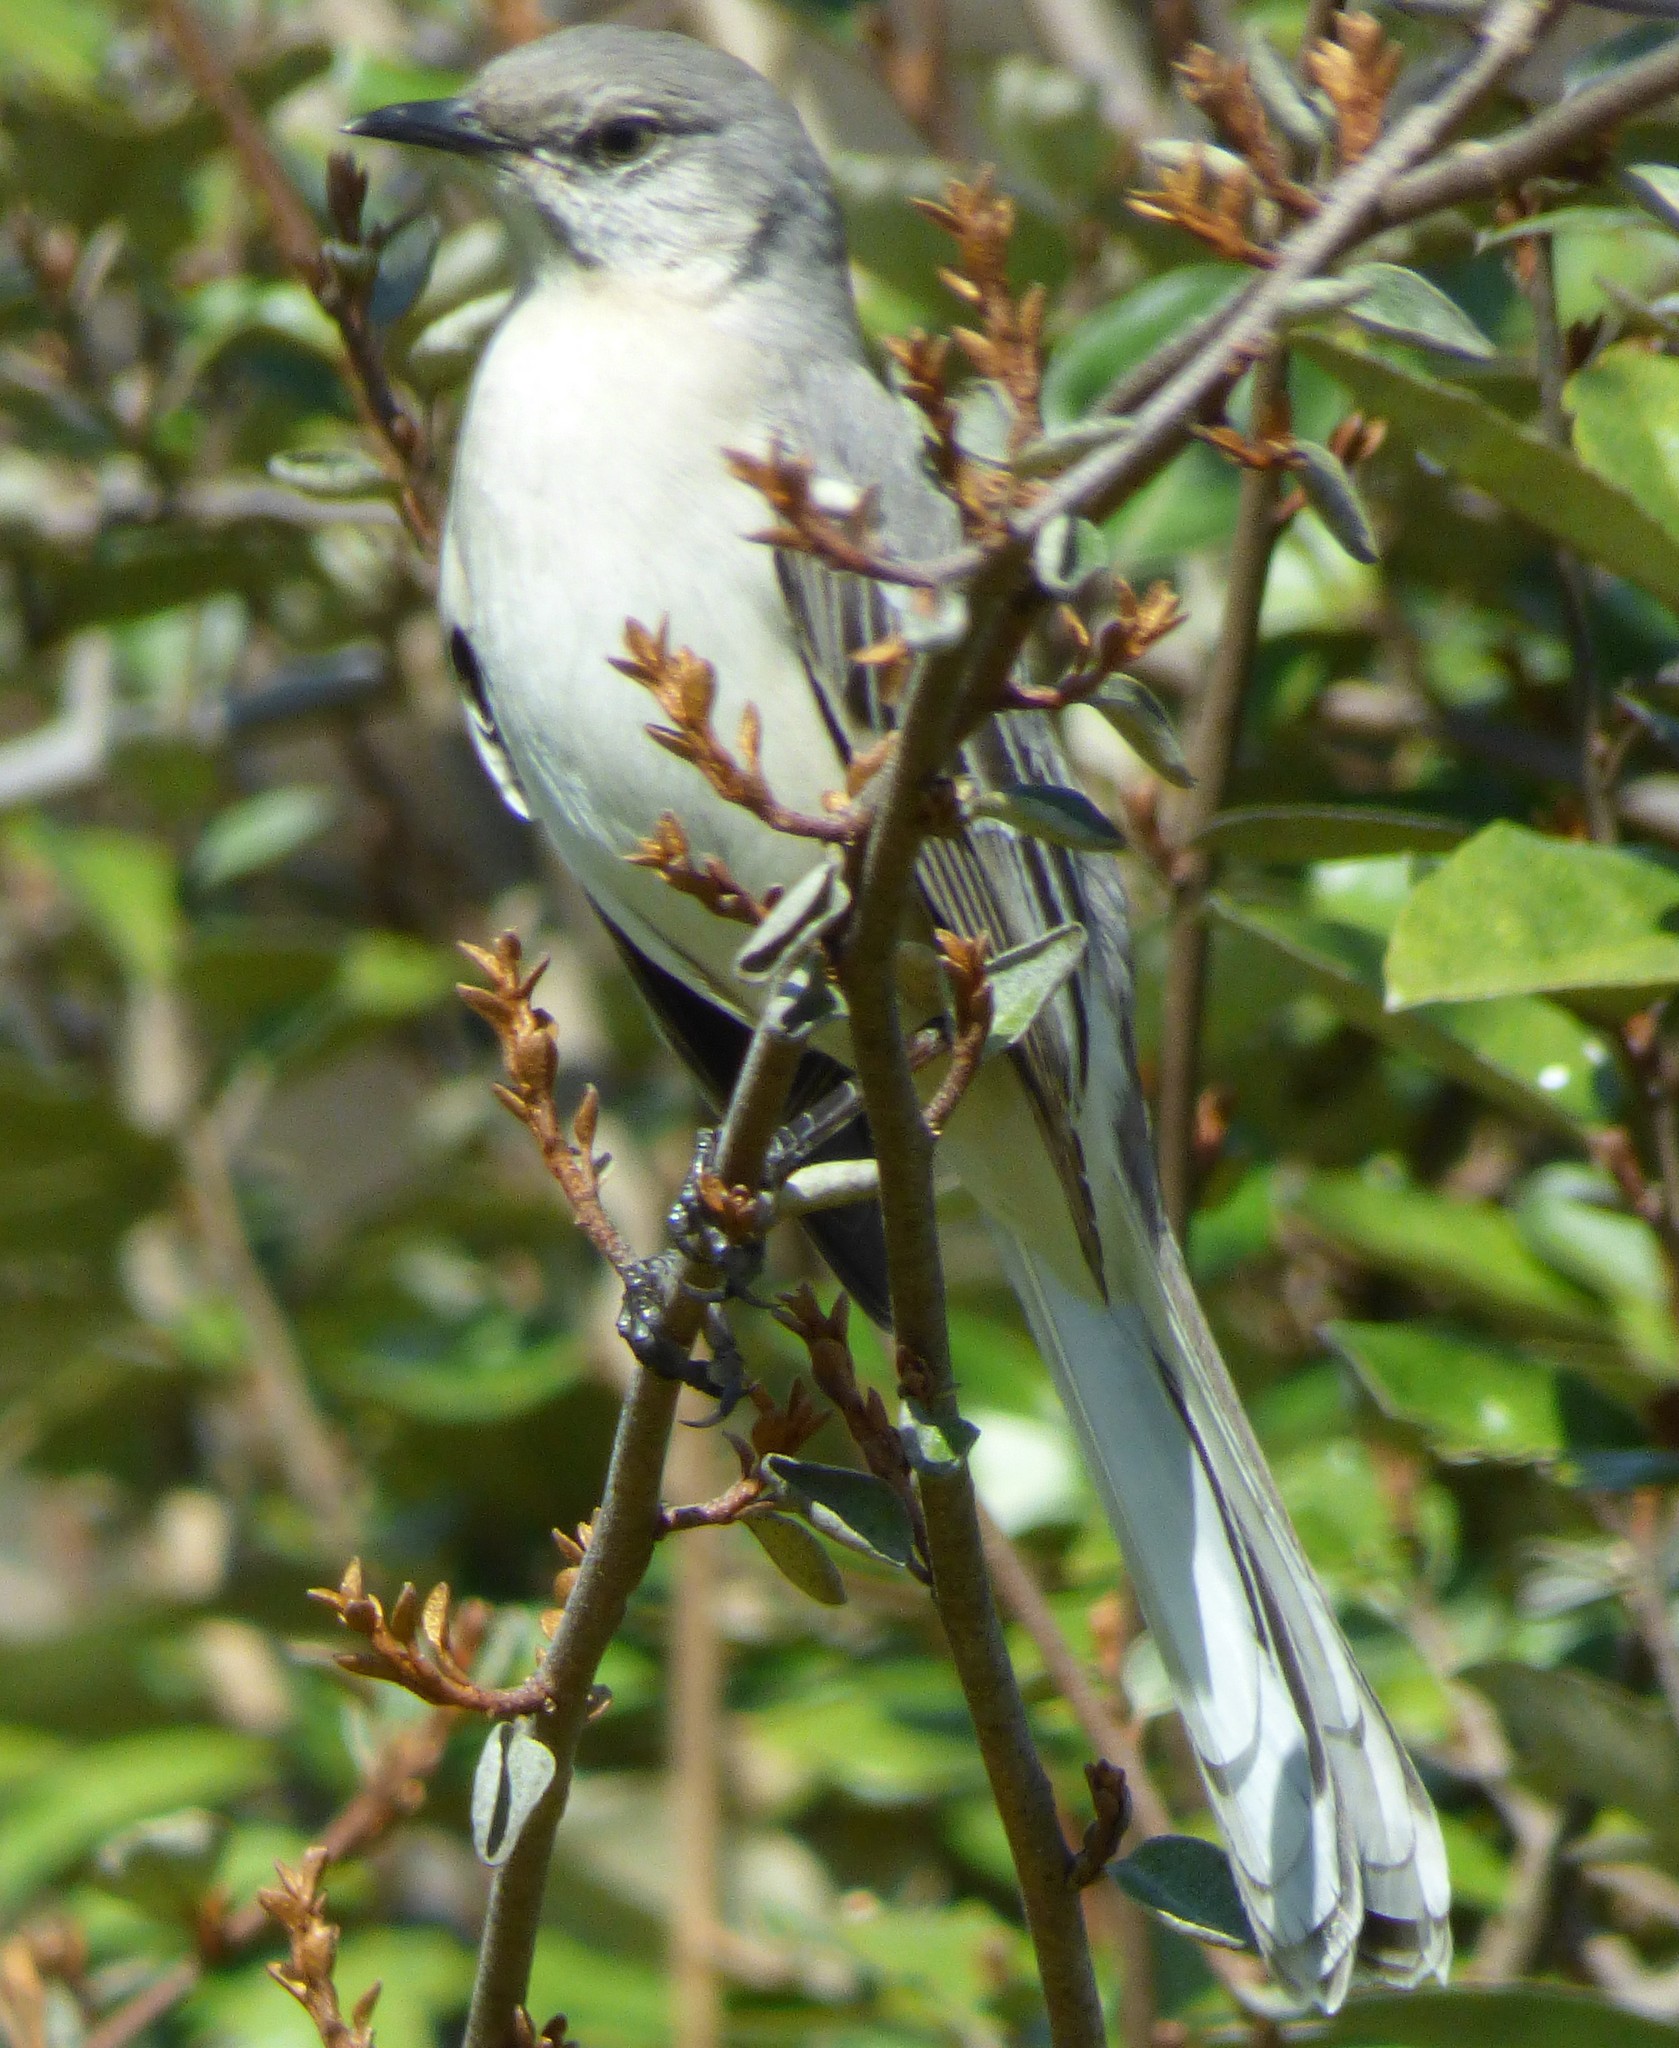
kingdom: Animalia
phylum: Chordata
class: Aves
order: Passeriformes
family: Mimidae
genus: Mimus
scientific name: Mimus polyglottos
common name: Northern mockingbird
